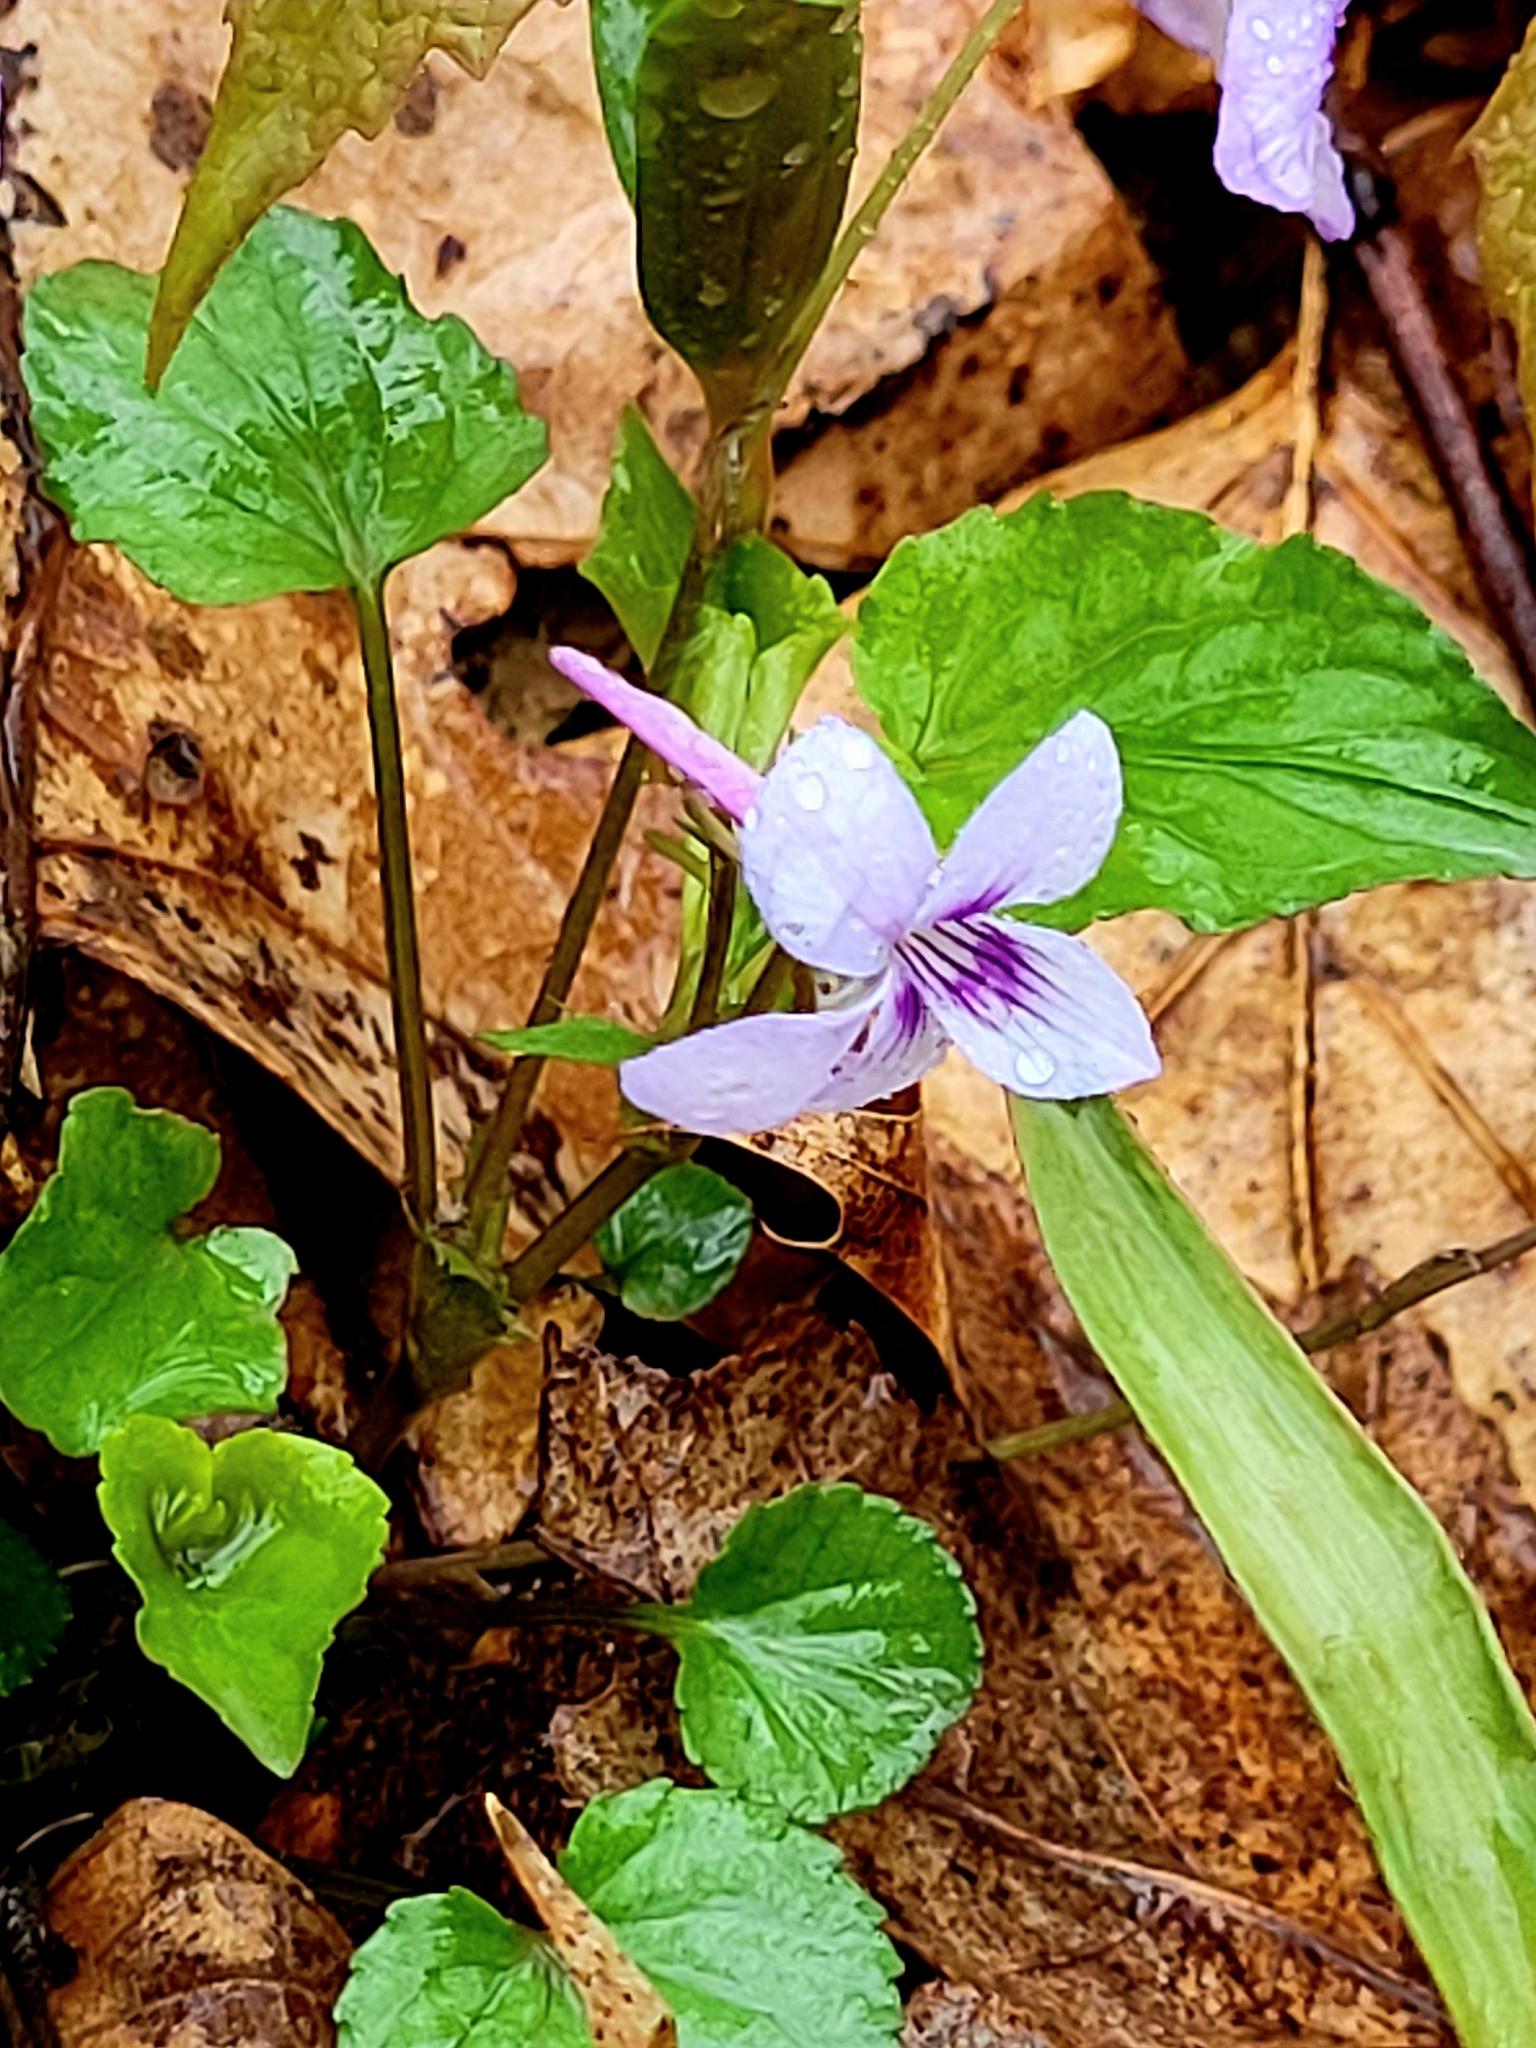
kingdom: Plantae
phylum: Tracheophyta
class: Magnoliopsida
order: Malpighiales
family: Violaceae
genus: Viola
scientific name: Viola rostrata
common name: Long-spur violet
